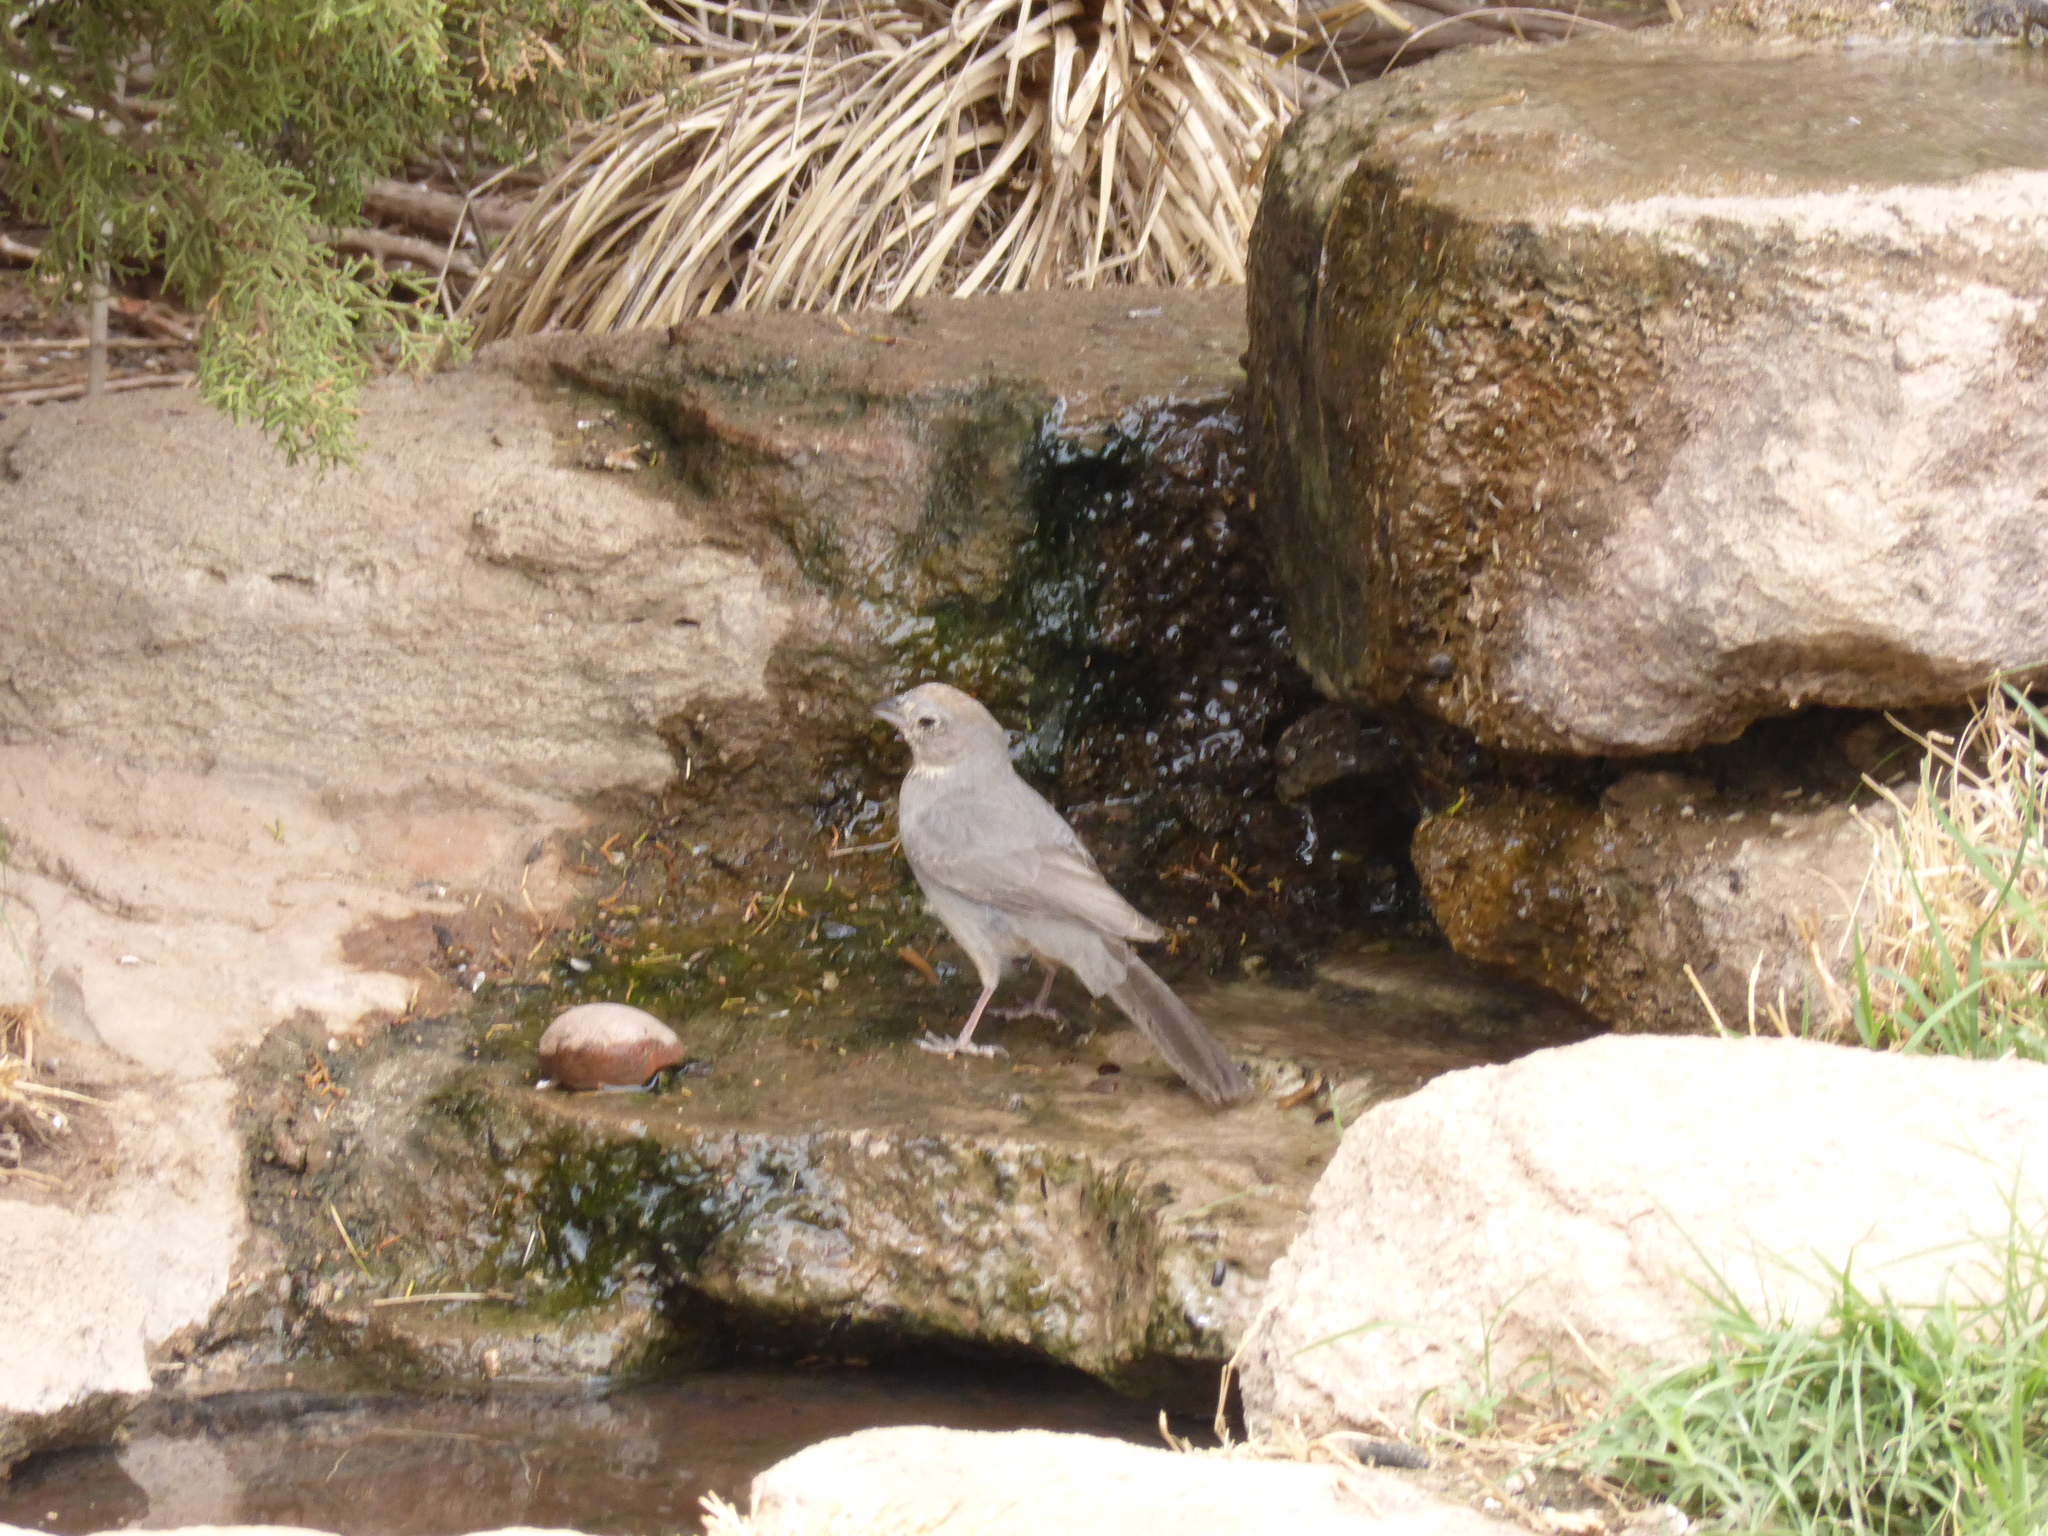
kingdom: Animalia
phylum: Chordata
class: Aves
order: Passeriformes
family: Passerellidae
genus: Melozone
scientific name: Melozone fusca
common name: Canyon towhee
